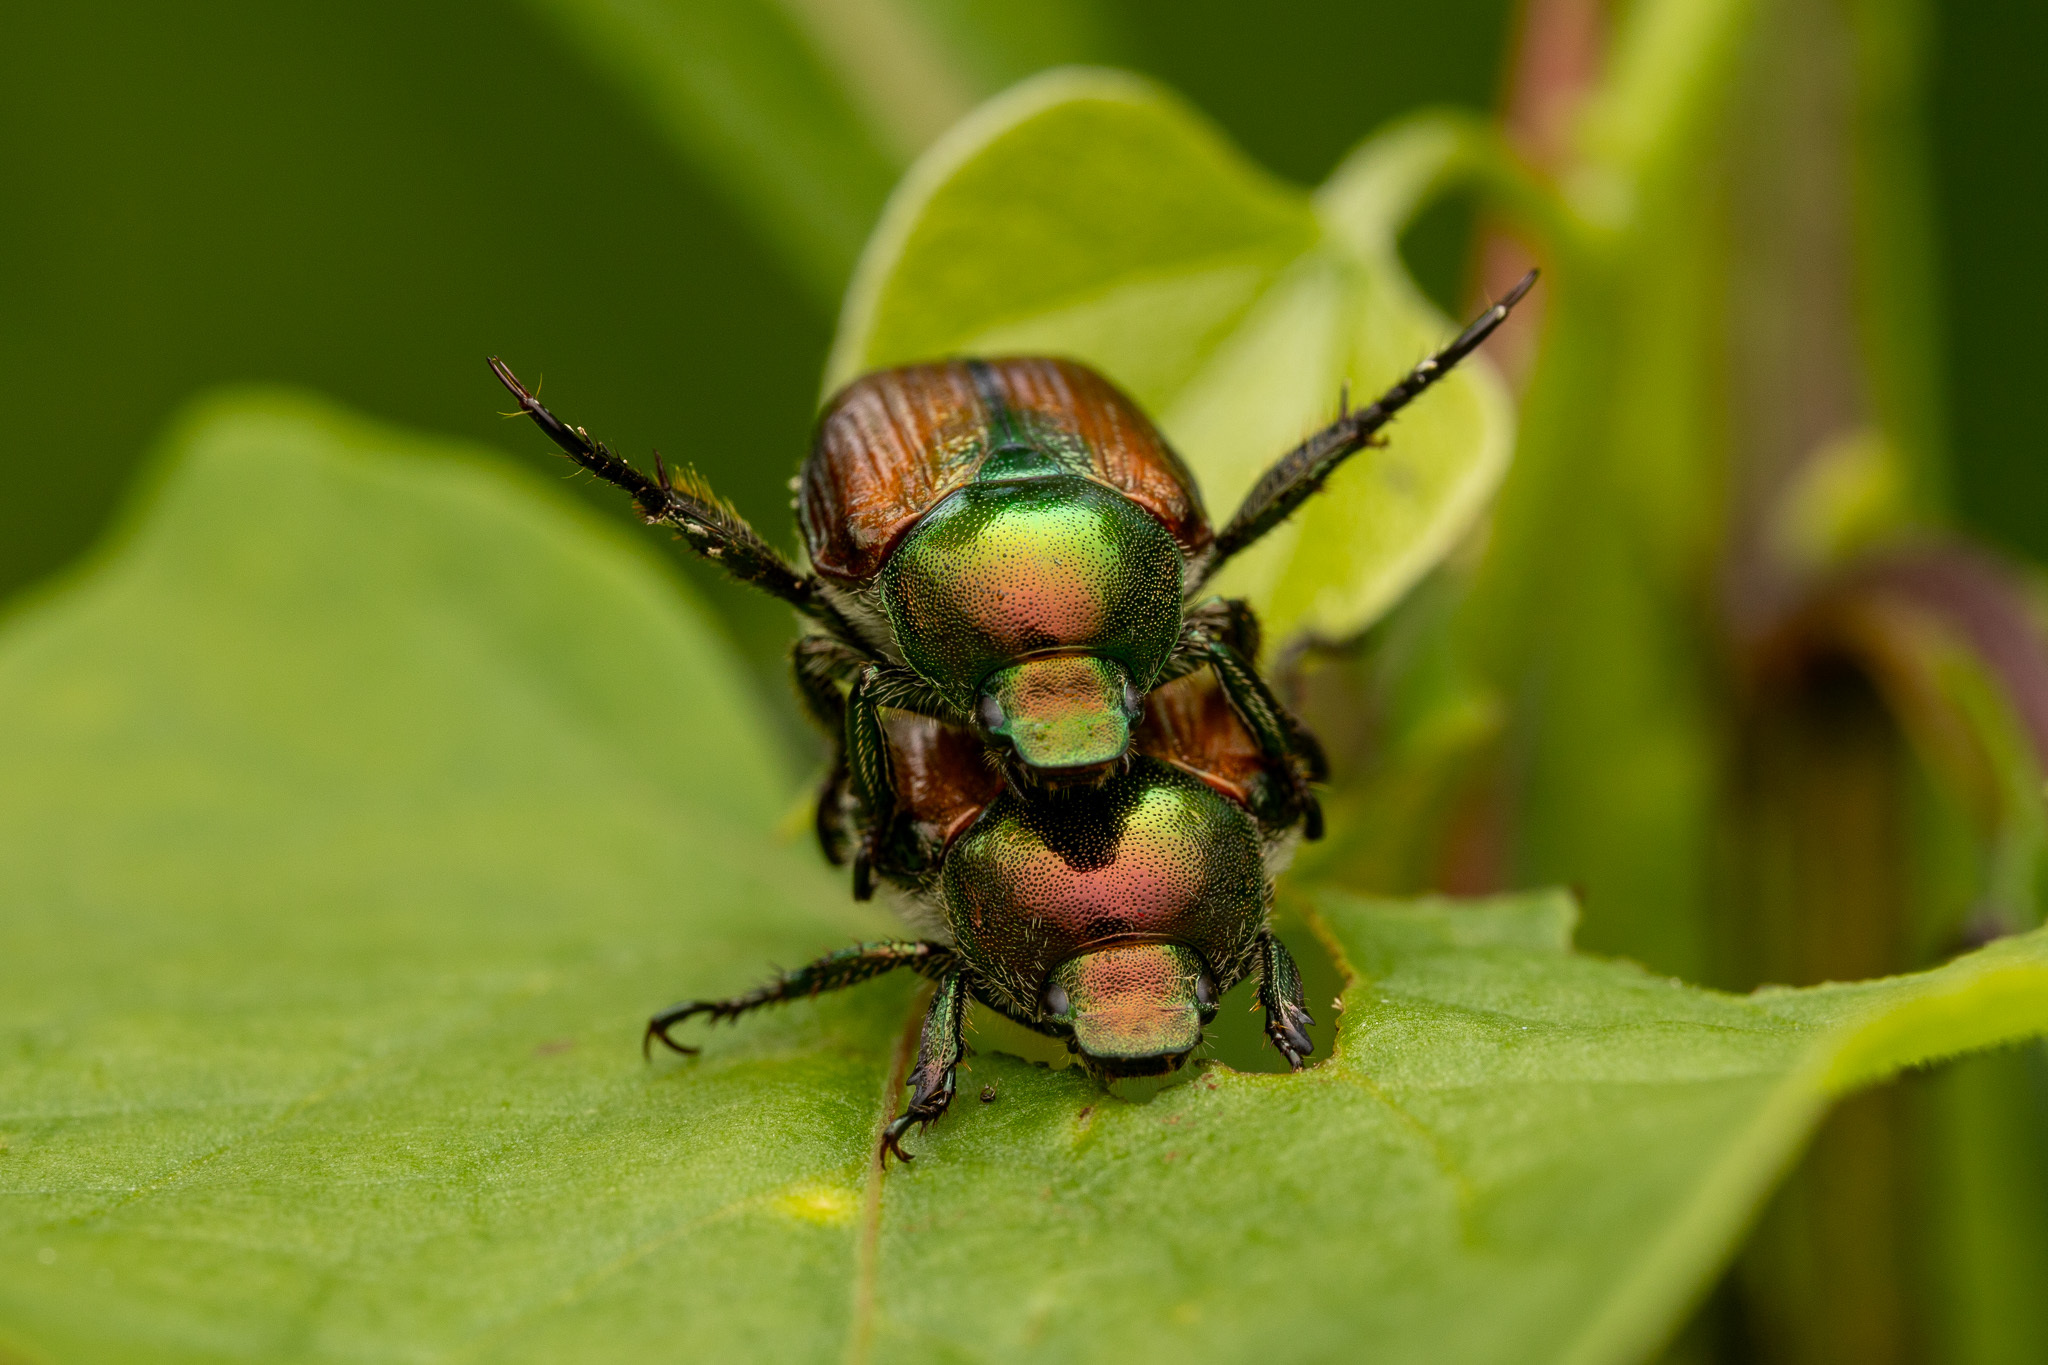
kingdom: Animalia
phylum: Arthropoda
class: Insecta
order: Coleoptera
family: Scarabaeidae
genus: Popillia
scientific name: Popillia japonica
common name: Japanese beetle
